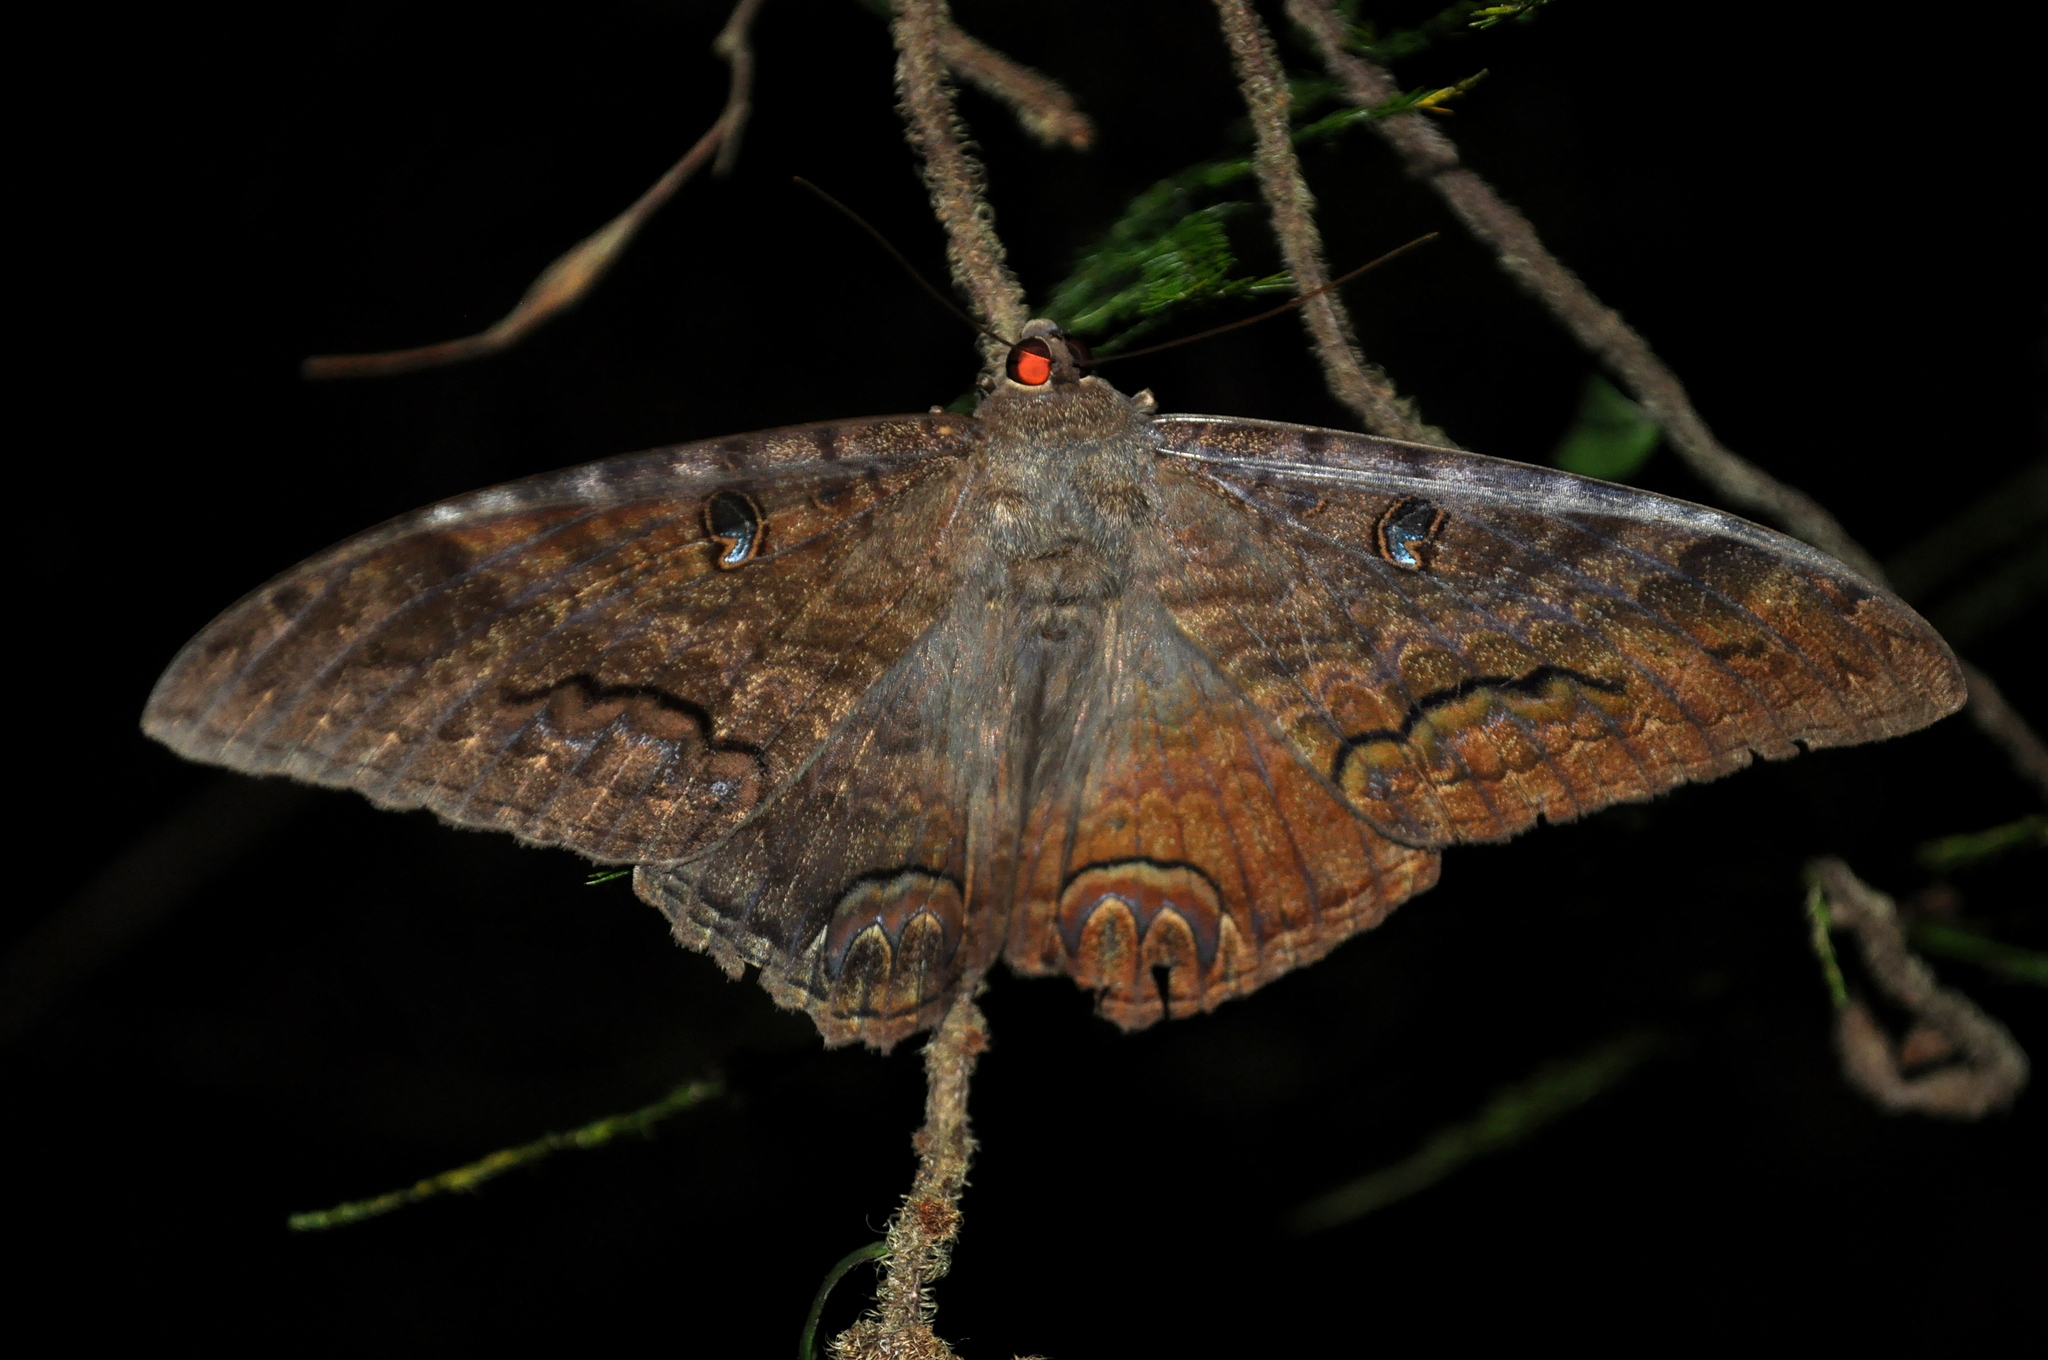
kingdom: Animalia
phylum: Arthropoda
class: Insecta
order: Lepidoptera
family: Erebidae
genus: Ascalapha
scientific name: Ascalapha odorata
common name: Black witch
